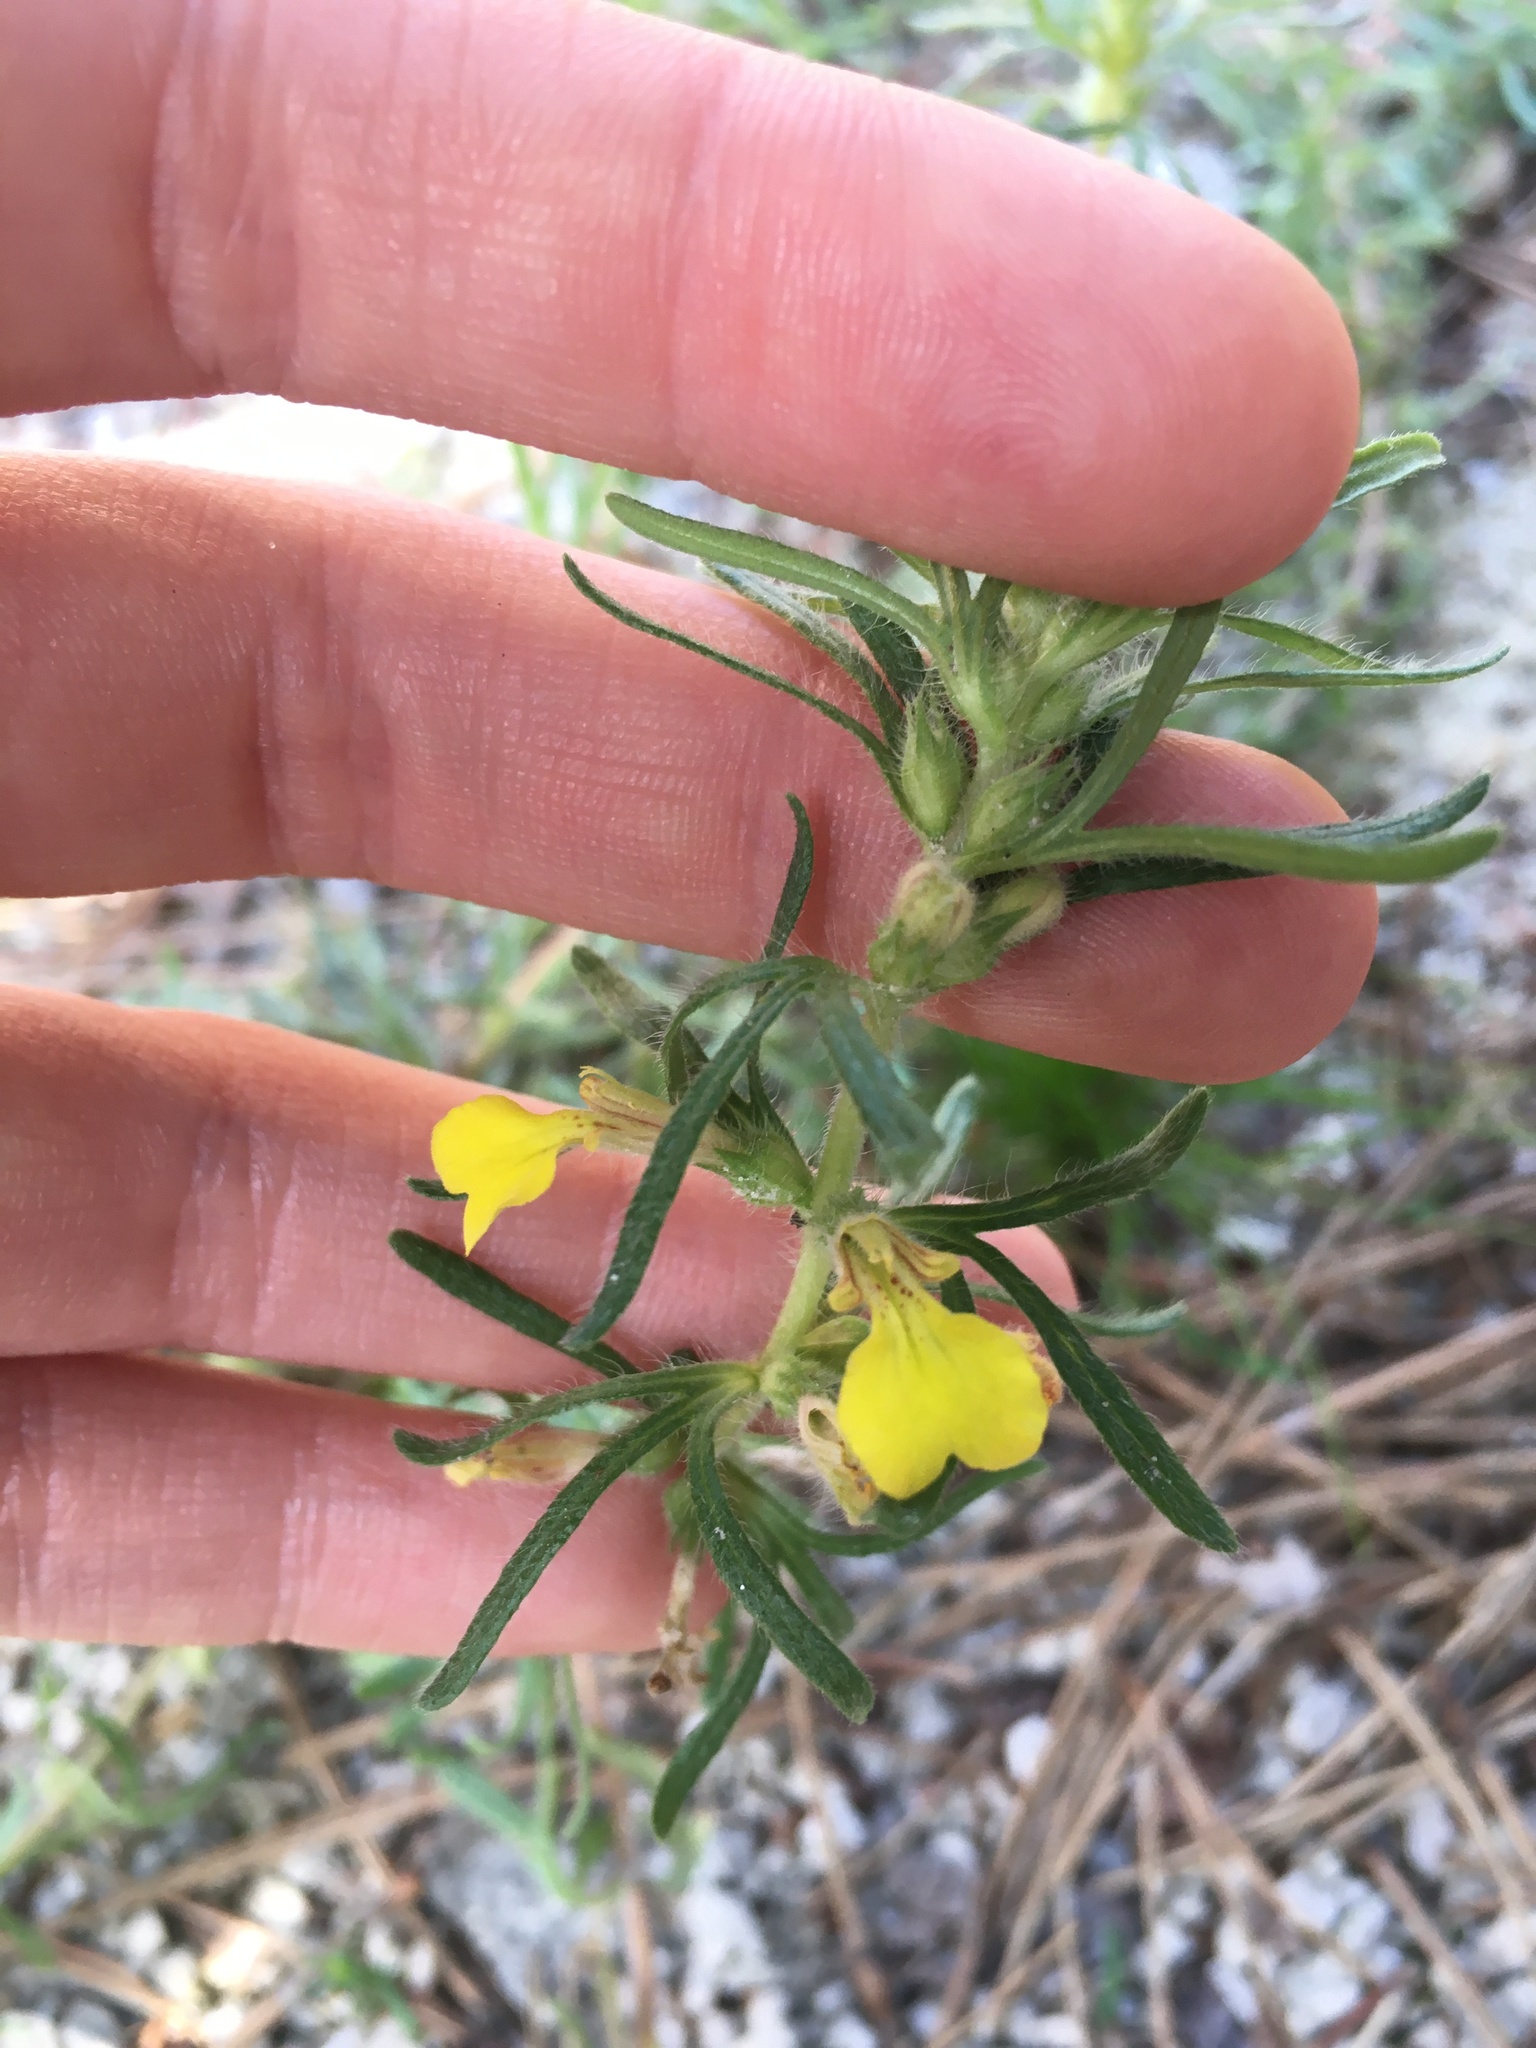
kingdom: Plantae
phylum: Tracheophyta
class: Magnoliopsida
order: Lamiales
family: Lamiaceae
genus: Ajuga
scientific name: Ajuga chamaepitys
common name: Ground-pine
